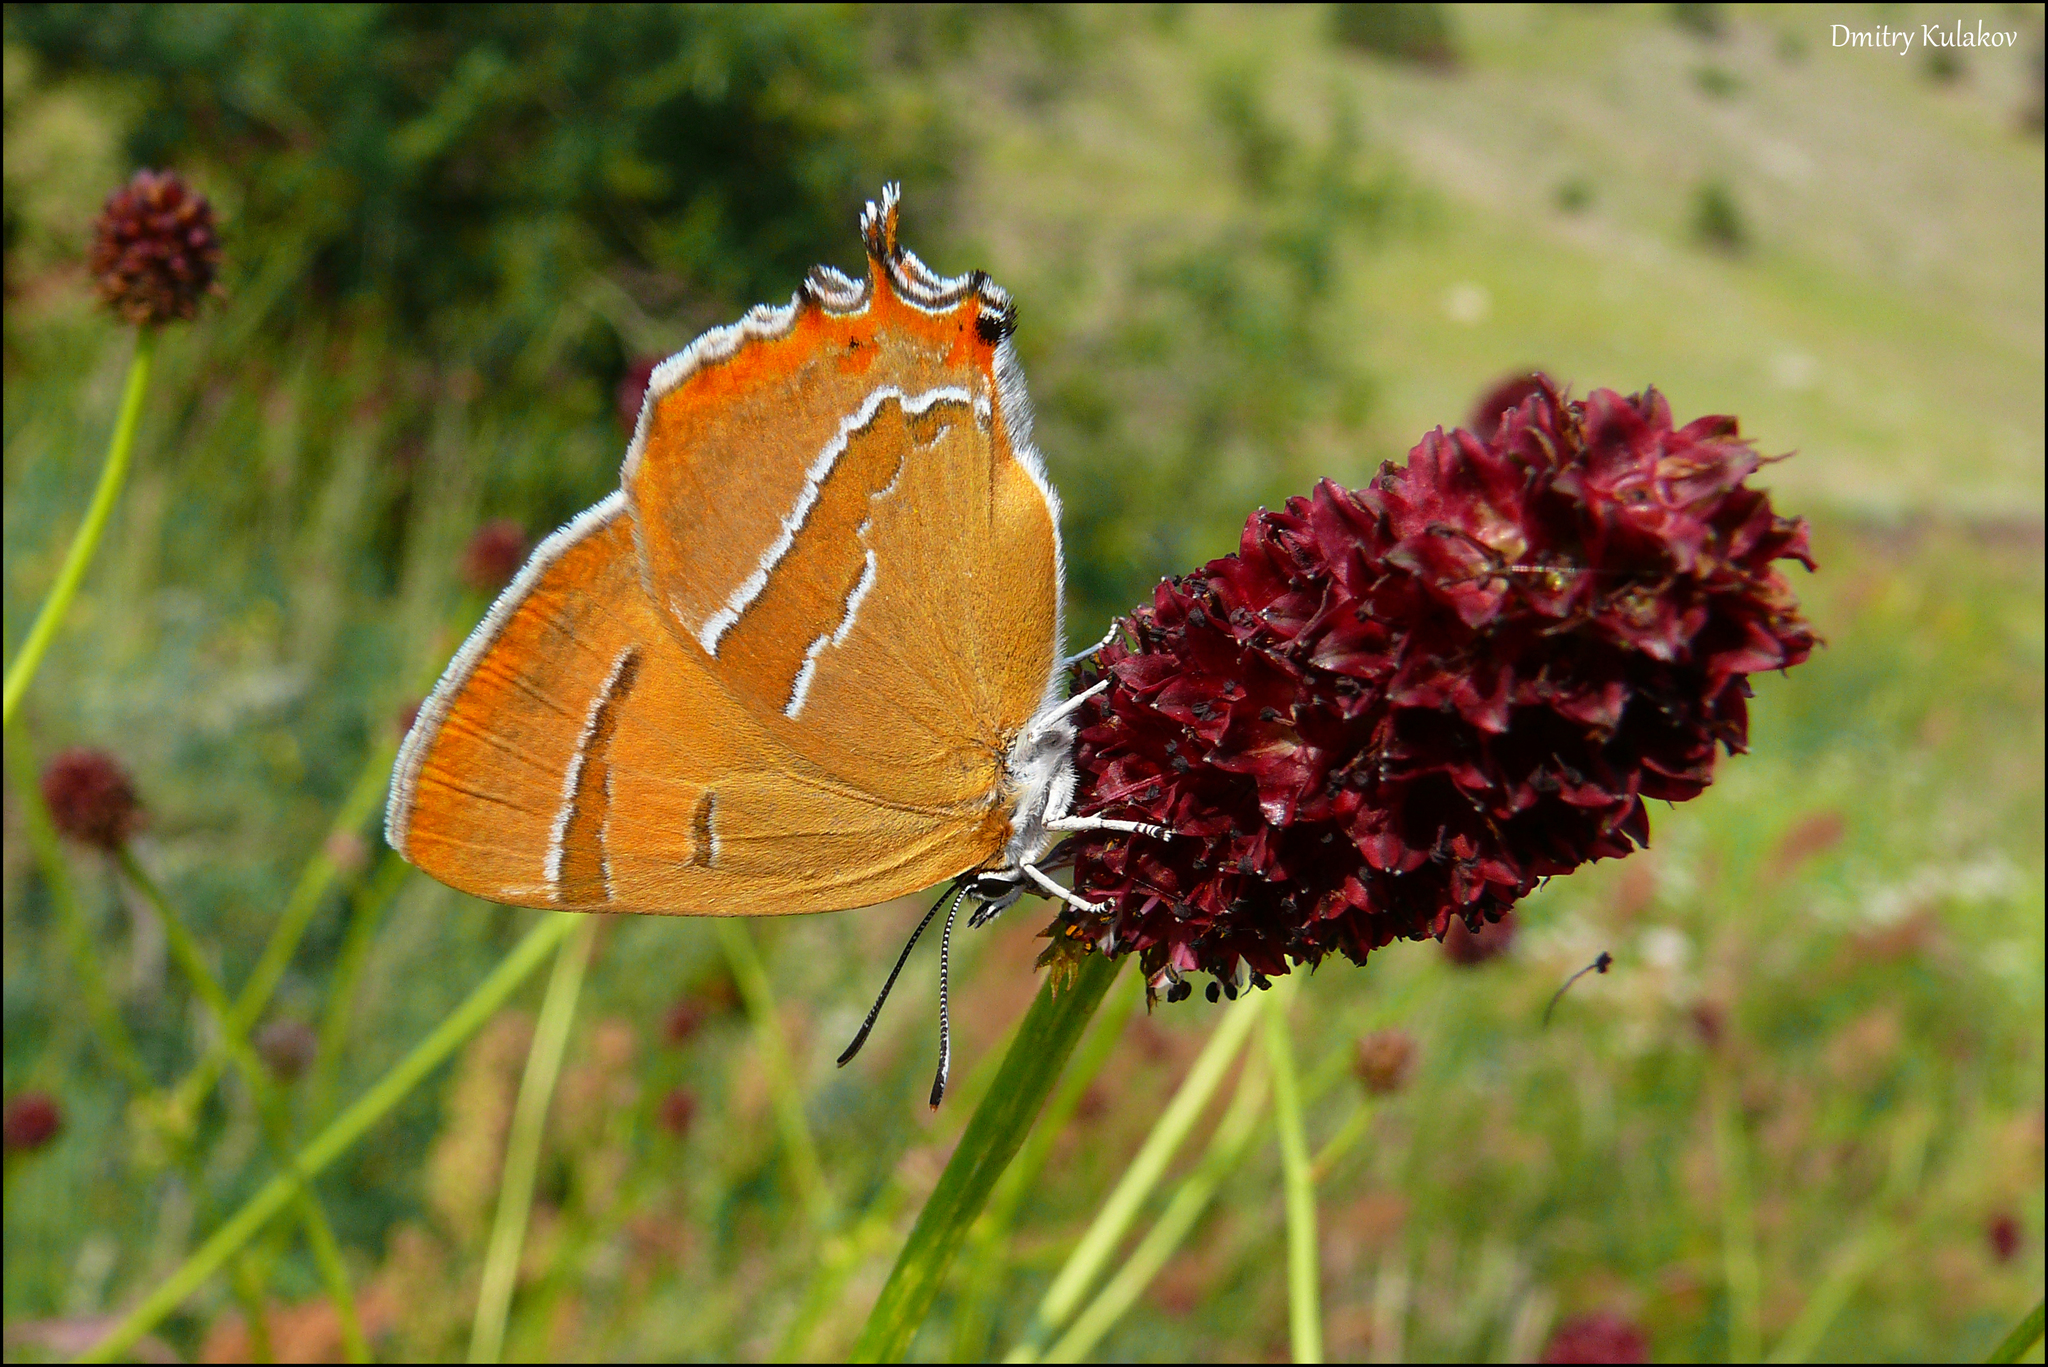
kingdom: Animalia
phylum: Arthropoda
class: Insecta
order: Lepidoptera
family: Lycaenidae
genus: Thecla
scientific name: Thecla betulae
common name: Brown hairstreak
